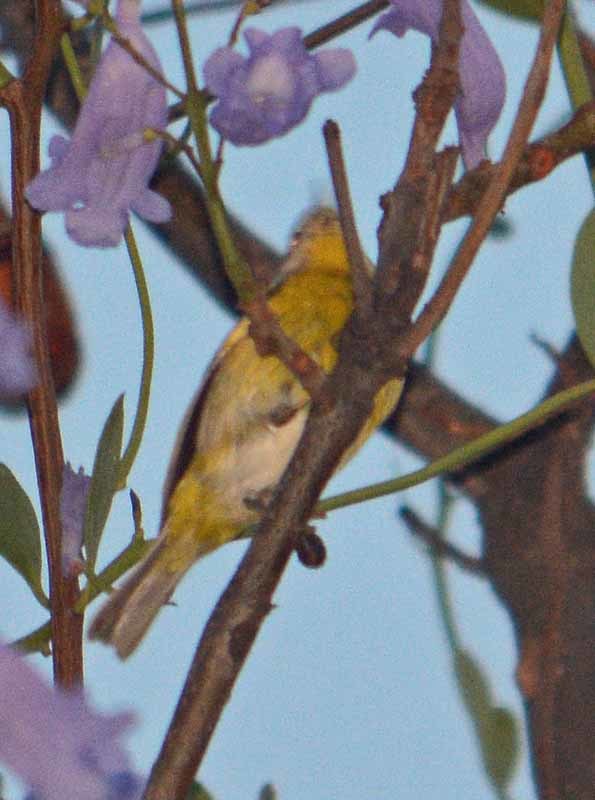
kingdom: Animalia
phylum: Chordata
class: Aves
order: Passeriformes
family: Parulidae
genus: Leiothlypis
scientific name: Leiothlypis ruficapilla
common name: Nashville warbler
